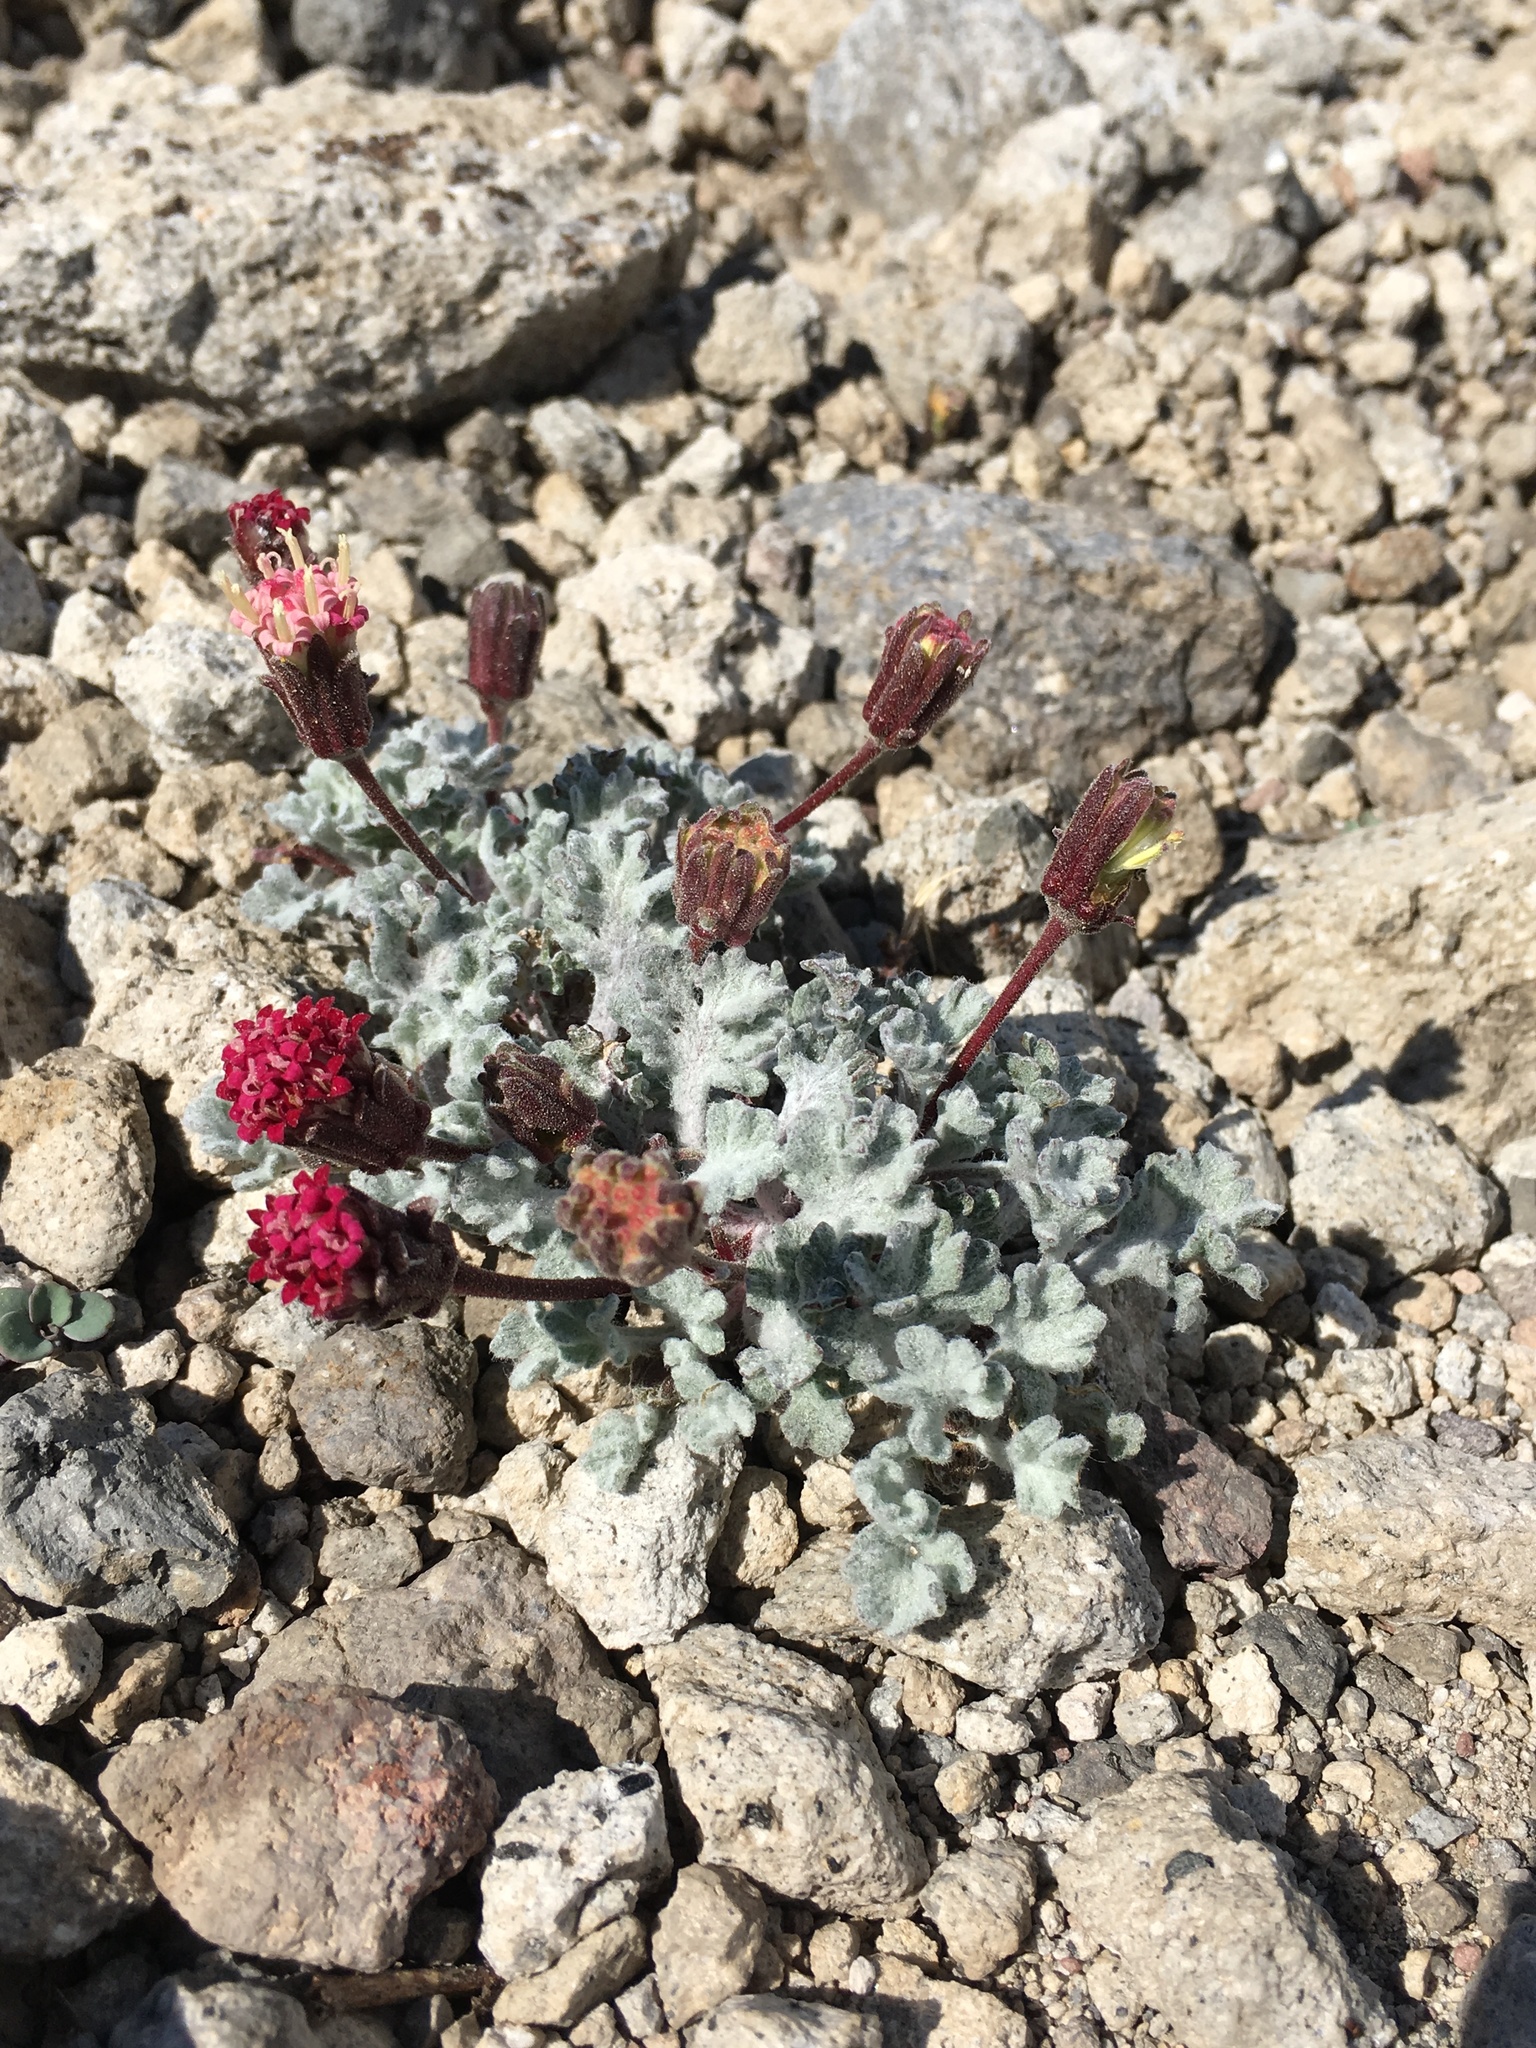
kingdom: Plantae
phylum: Tracheophyta
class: Magnoliopsida
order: Asterales
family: Asteraceae
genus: Chaenactis
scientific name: Chaenactis nevadensis
